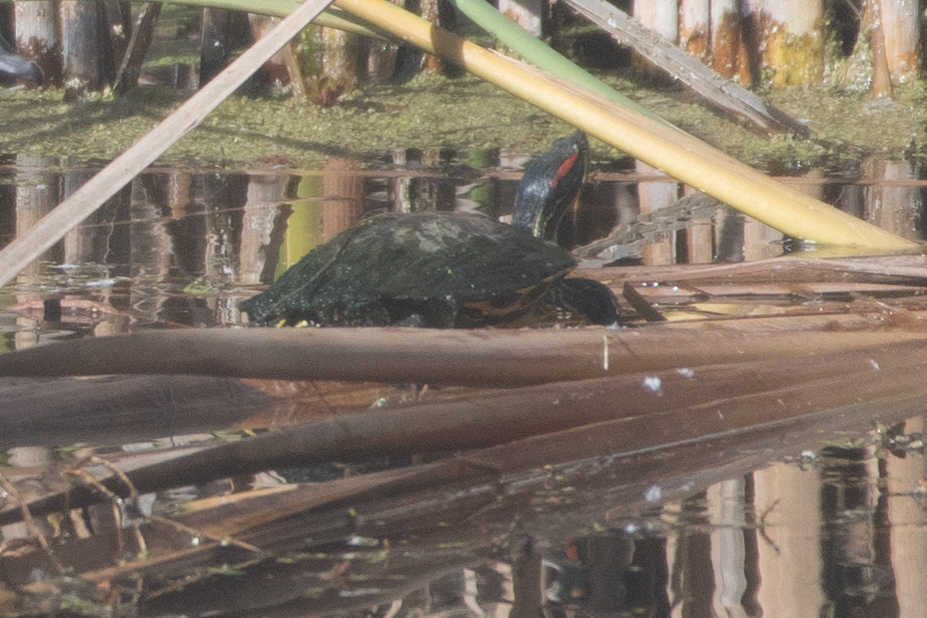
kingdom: Animalia
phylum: Chordata
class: Testudines
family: Emydidae
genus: Trachemys
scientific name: Trachemys scripta
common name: Slider
